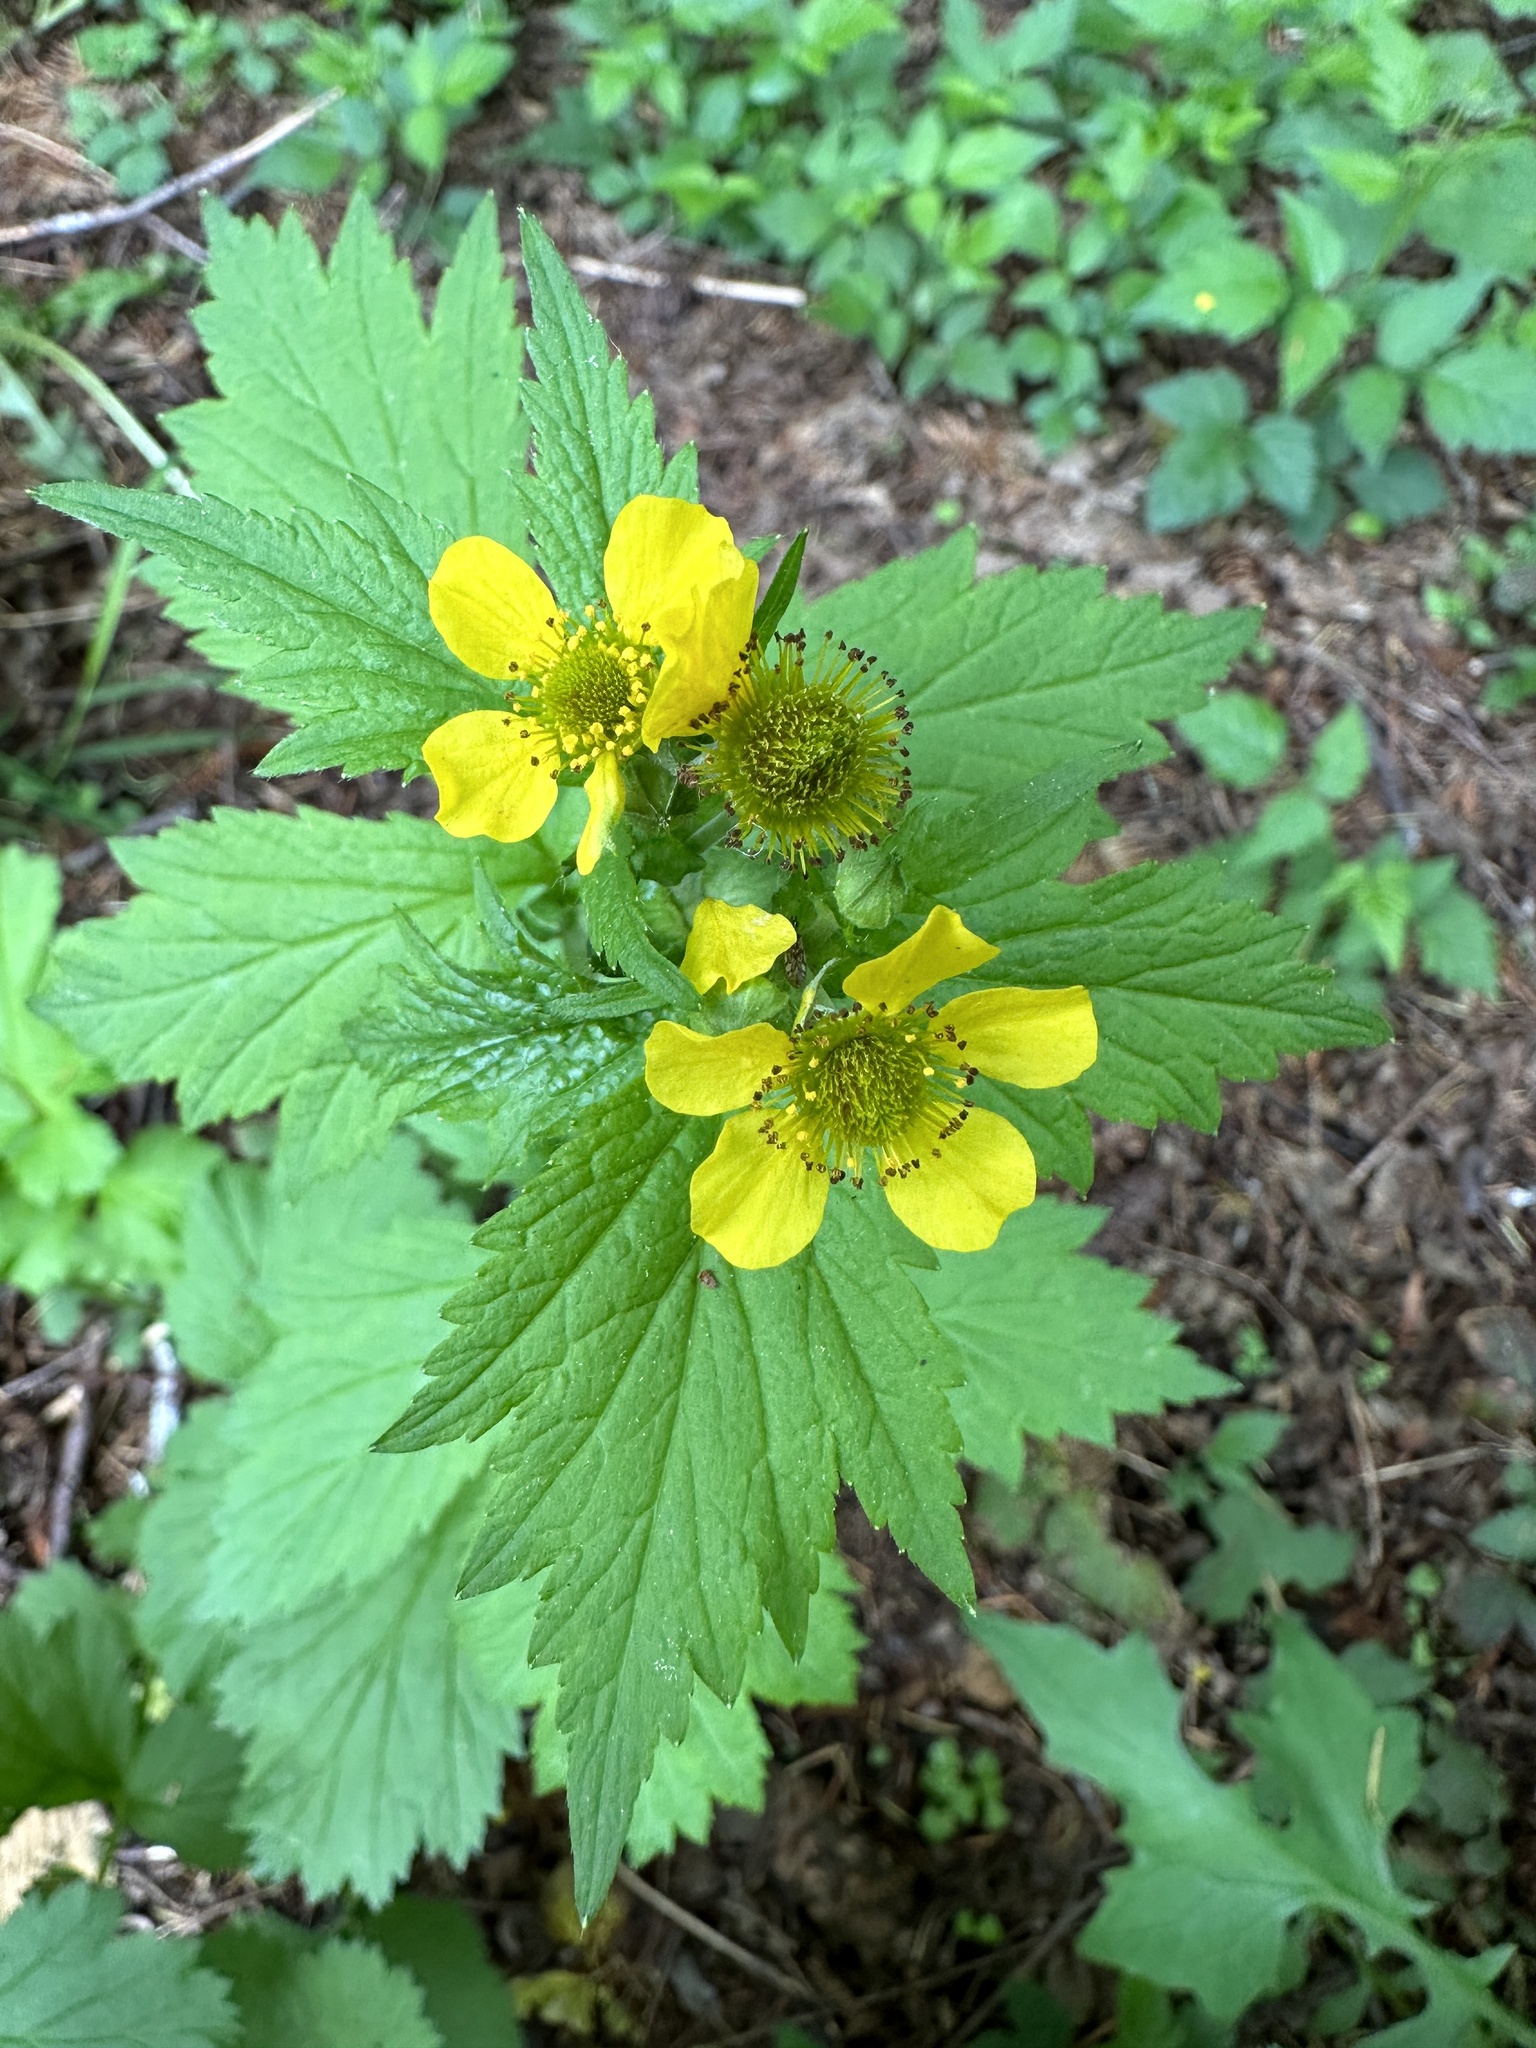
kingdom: Plantae
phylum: Tracheophyta
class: Magnoliopsida
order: Rosales
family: Rosaceae
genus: Geum
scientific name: Geum macrophyllum
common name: Large-leaved avens
